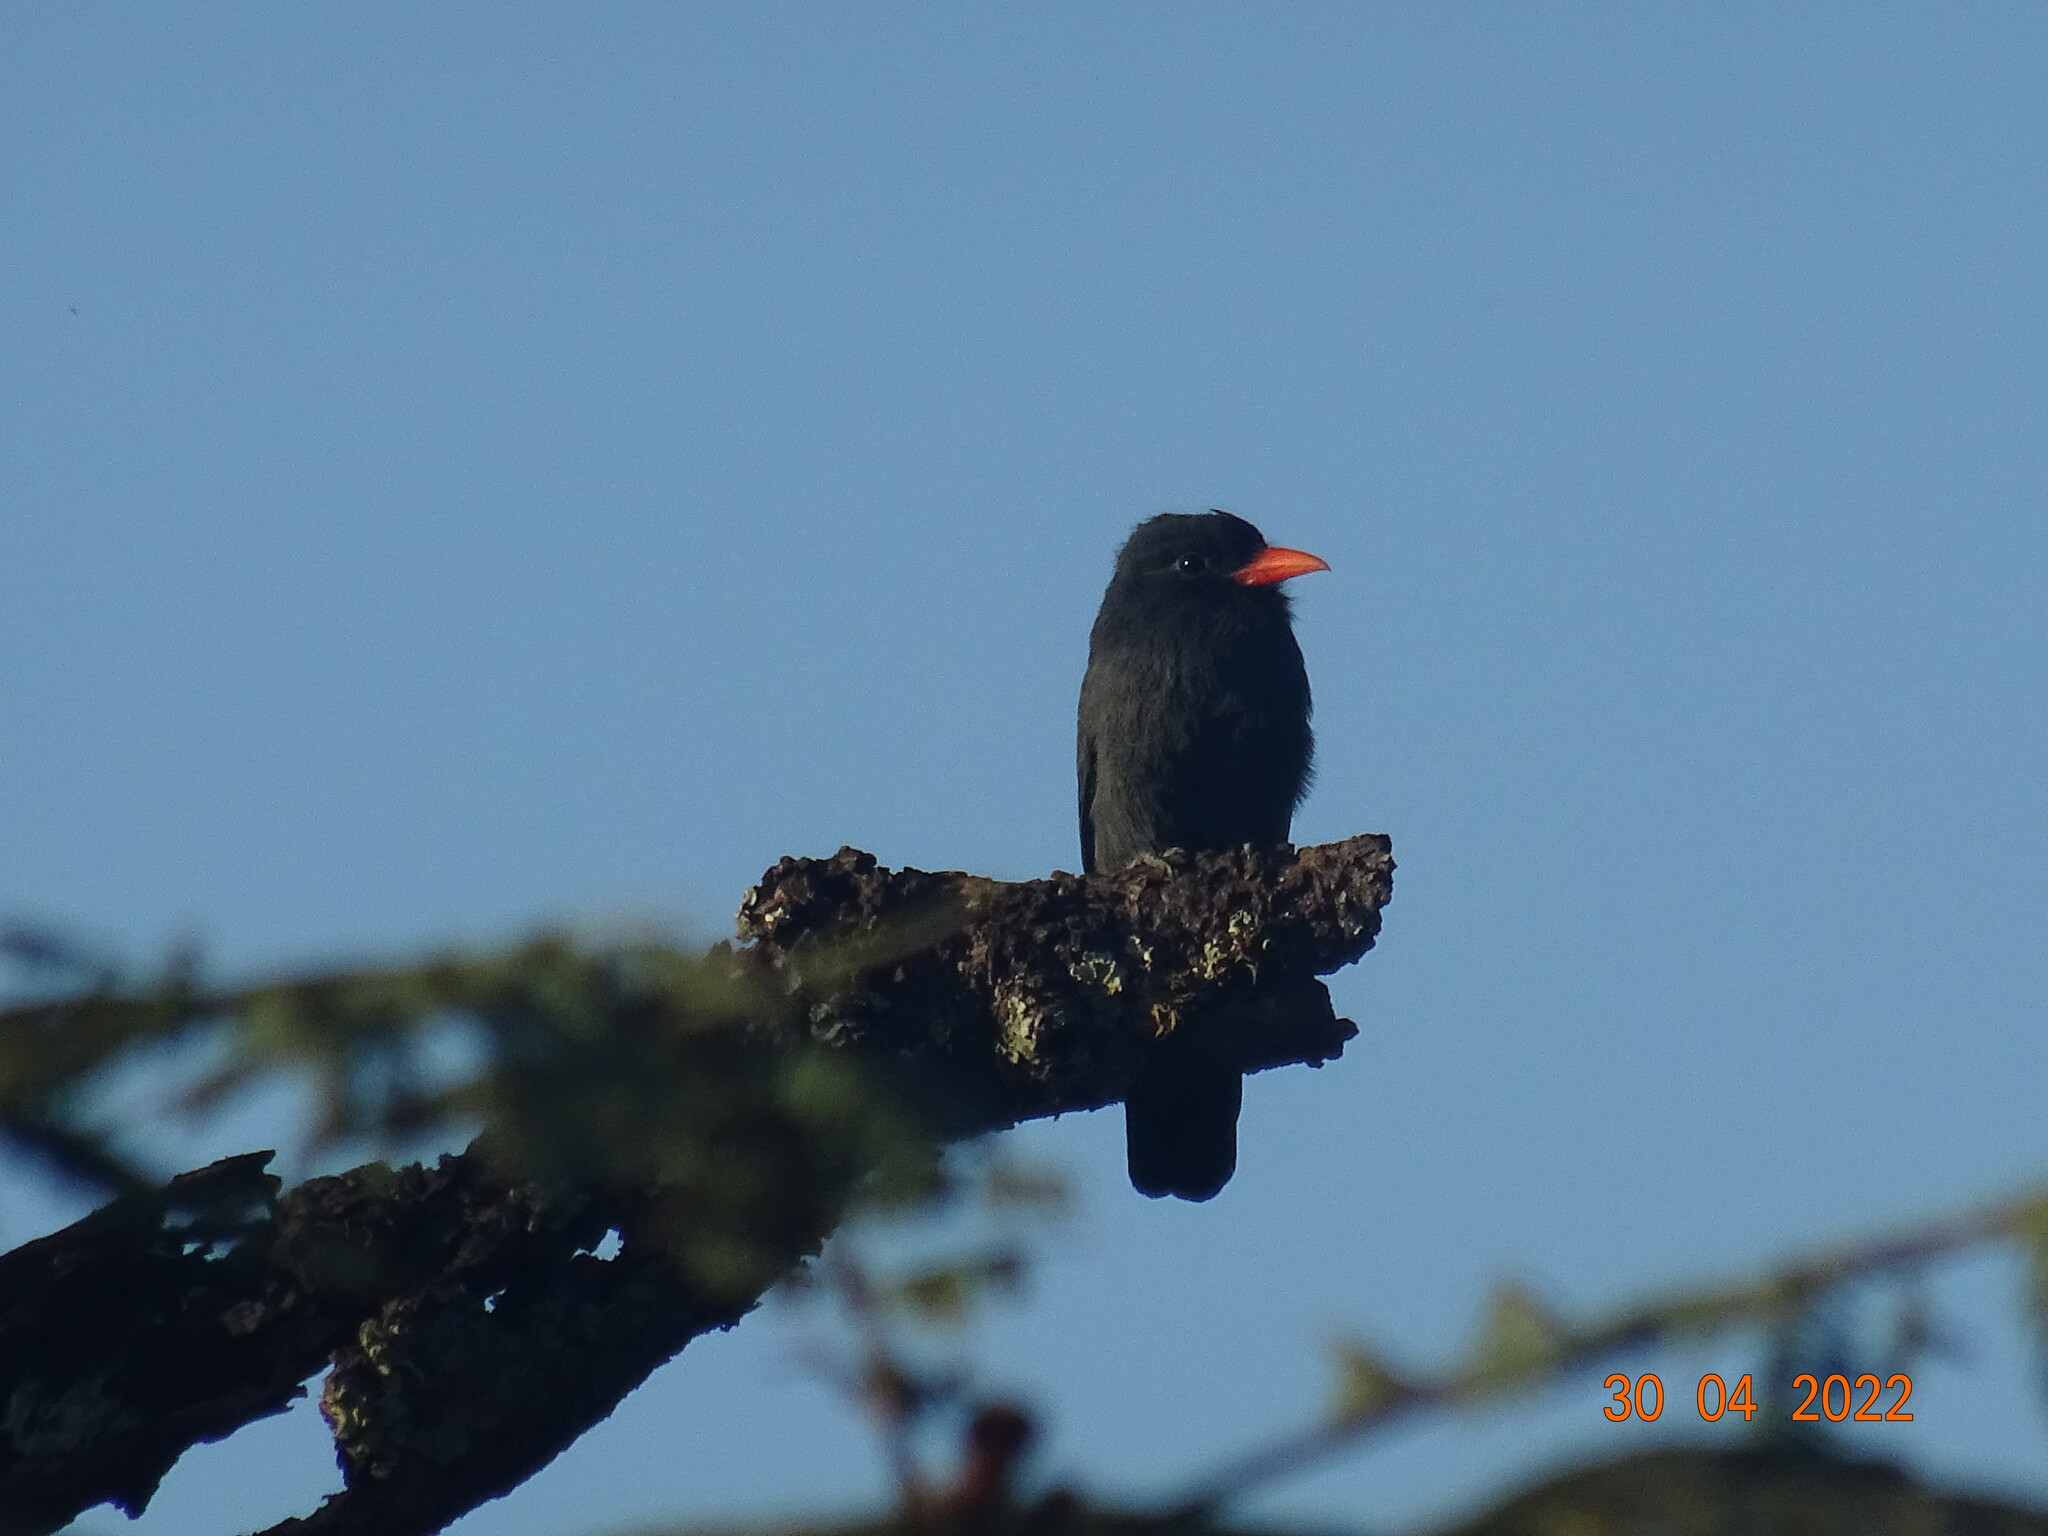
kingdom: Animalia
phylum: Chordata
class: Aves
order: Piciformes
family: Bucconidae
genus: Monasa
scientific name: Monasa nigrifrons
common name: Black-fronted nunbird
